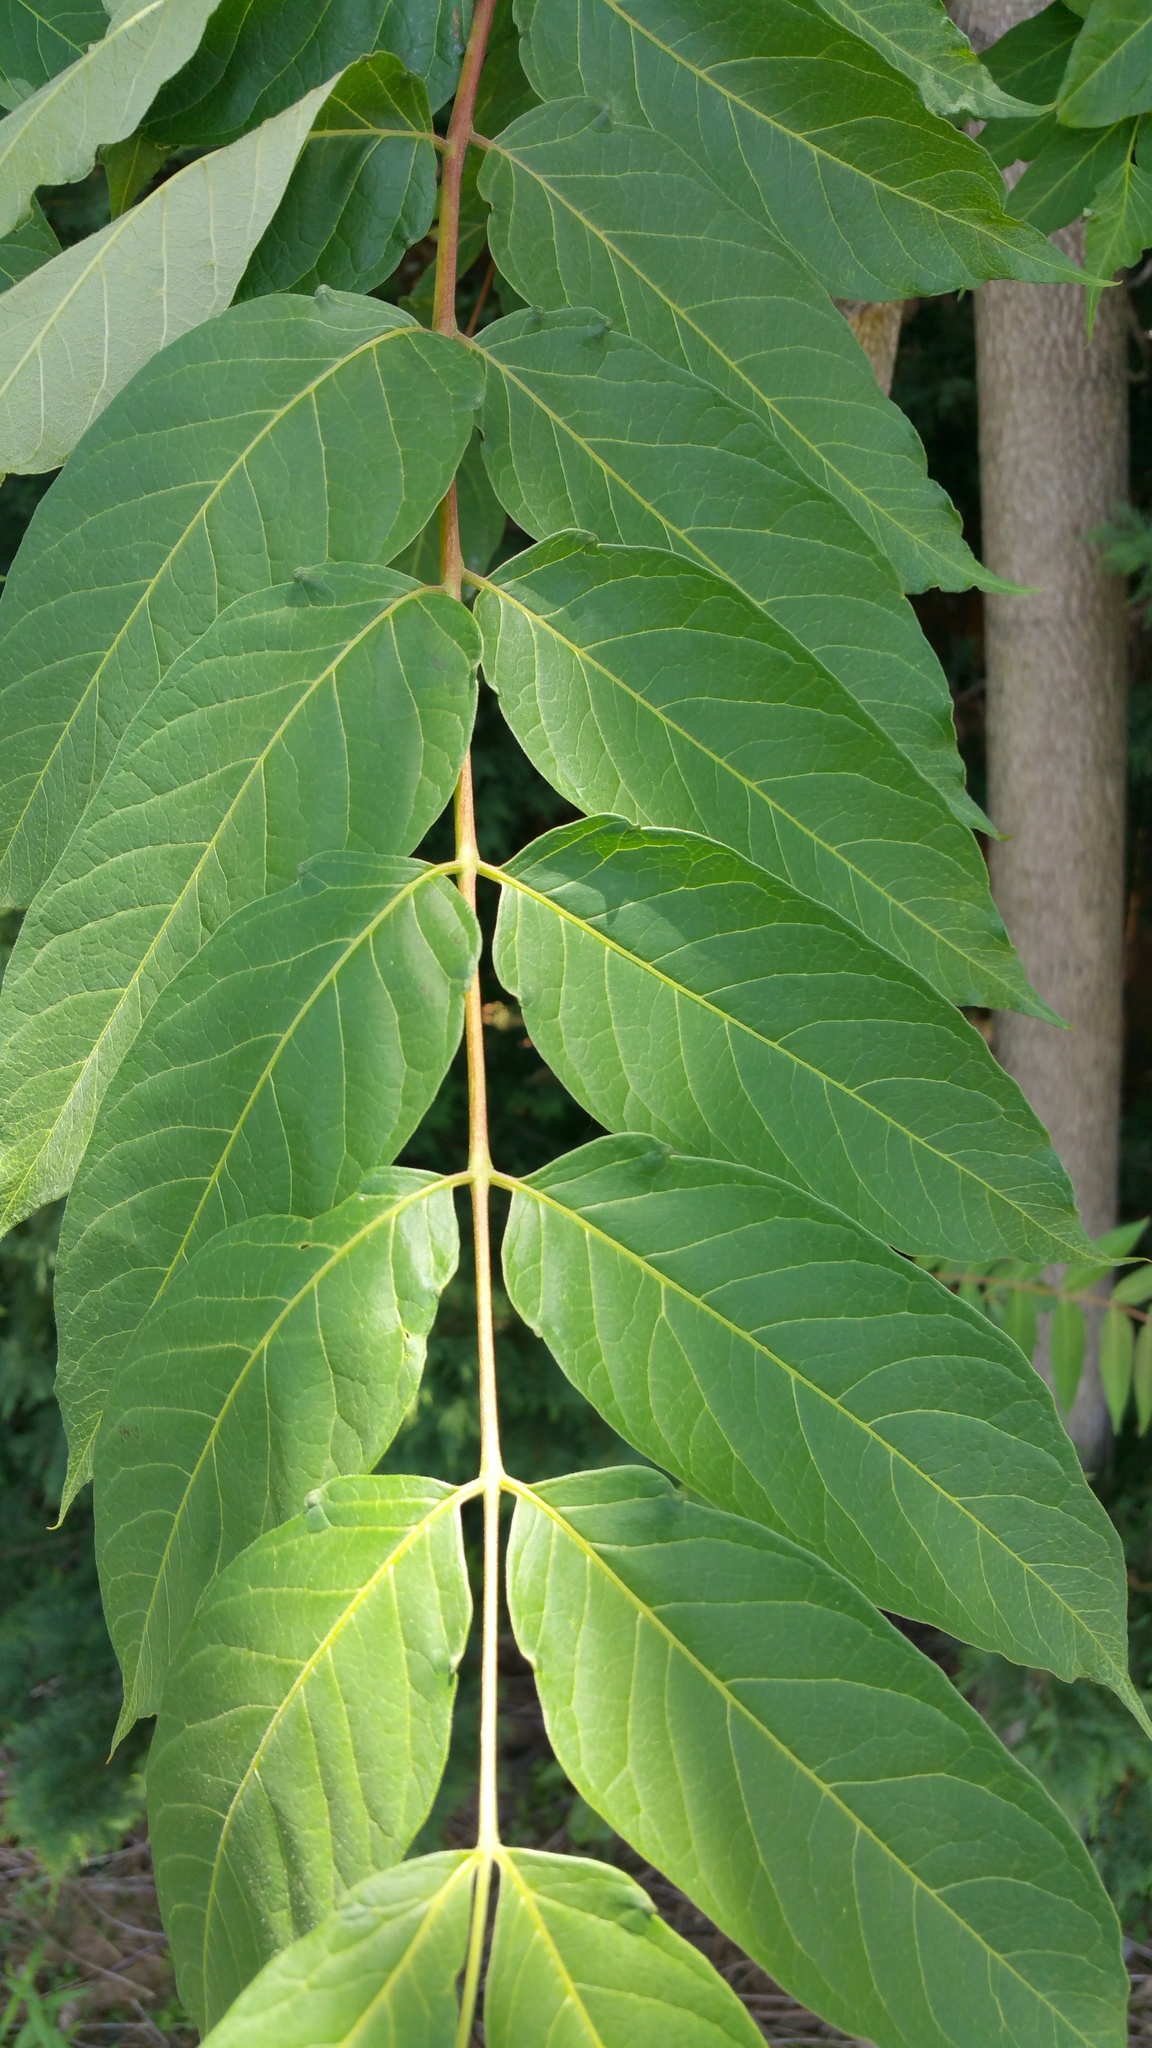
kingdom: Plantae
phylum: Tracheophyta
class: Magnoliopsida
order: Sapindales
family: Simaroubaceae
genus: Ailanthus
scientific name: Ailanthus altissima
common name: Tree-of-heaven
